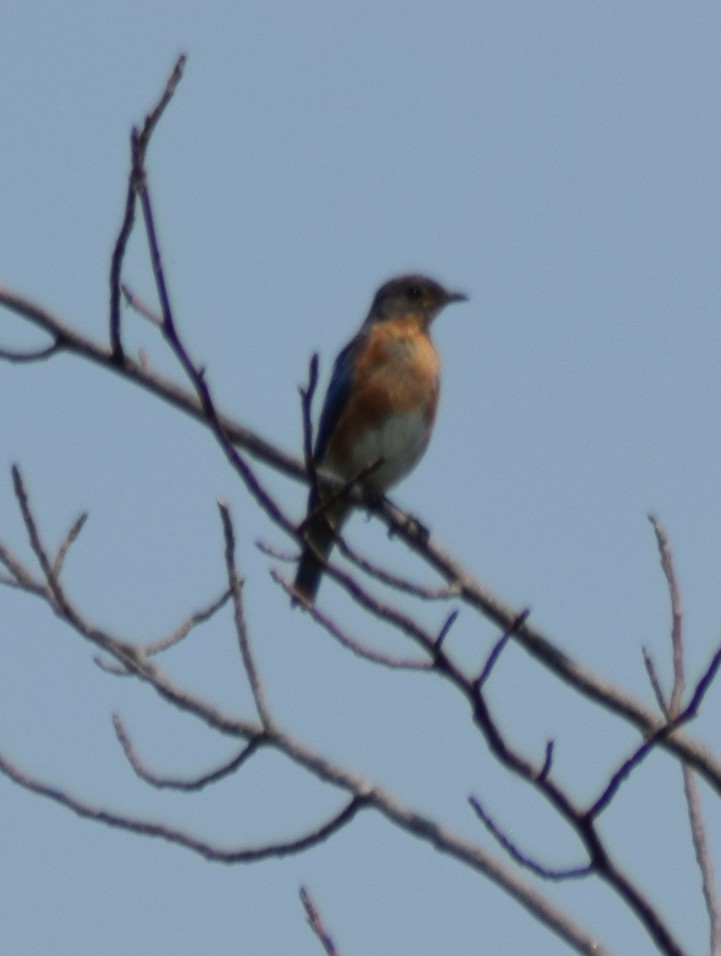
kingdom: Animalia
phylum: Chordata
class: Aves
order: Passeriformes
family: Turdidae
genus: Sialia
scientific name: Sialia sialis
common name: Eastern bluebird
